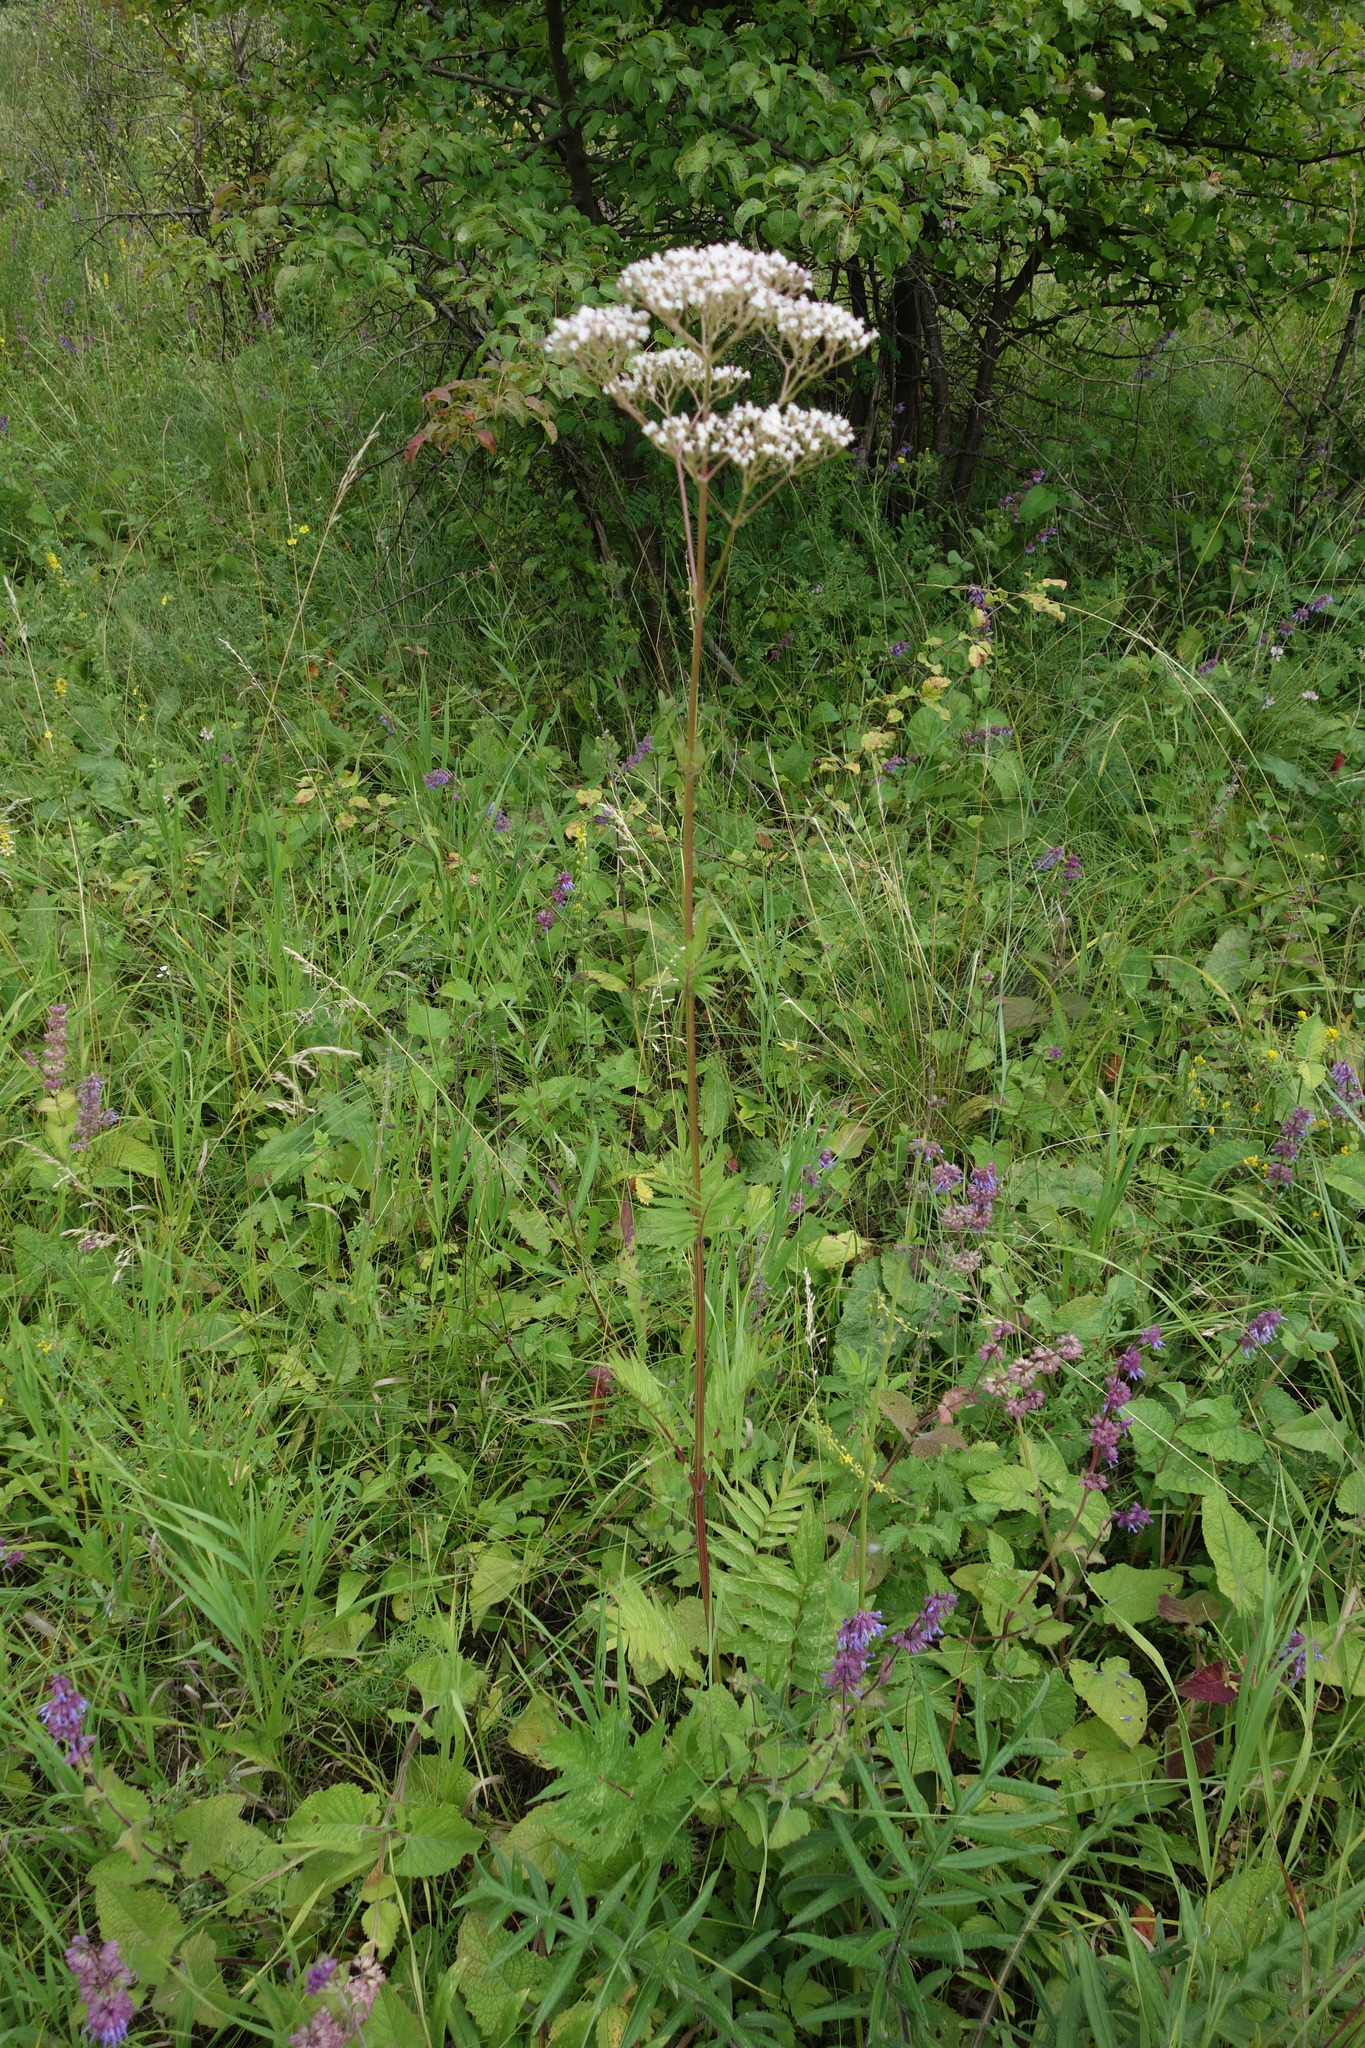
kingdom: Plantae
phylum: Tracheophyta
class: Magnoliopsida
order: Dipsacales
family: Caprifoliaceae
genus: Valeriana
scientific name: Valeriana officinalis
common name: Common valerian
